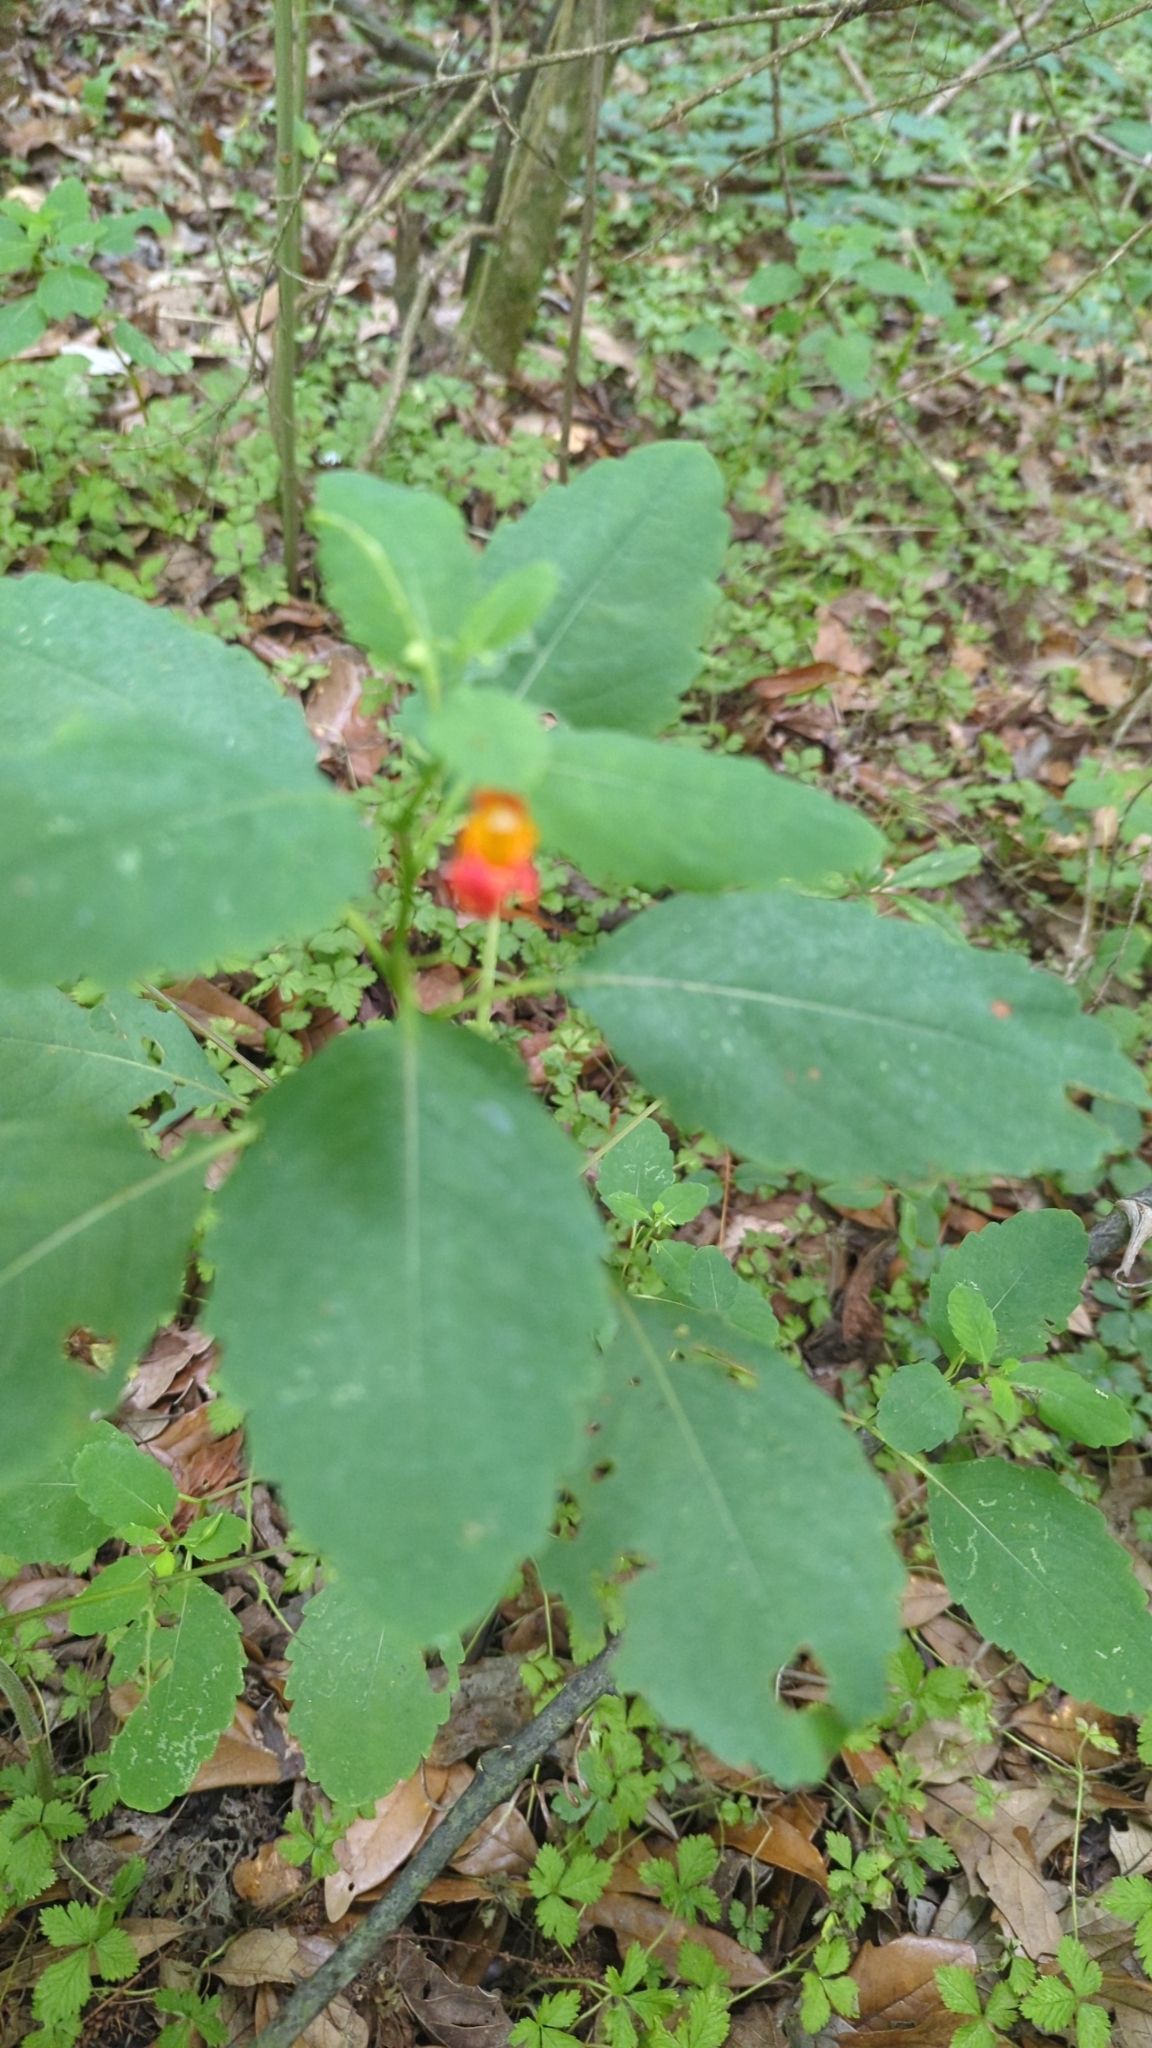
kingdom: Plantae
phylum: Tracheophyta
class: Magnoliopsida
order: Ericales
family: Balsaminaceae
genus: Impatiens
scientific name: Impatiens capensis
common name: Orange balsam
